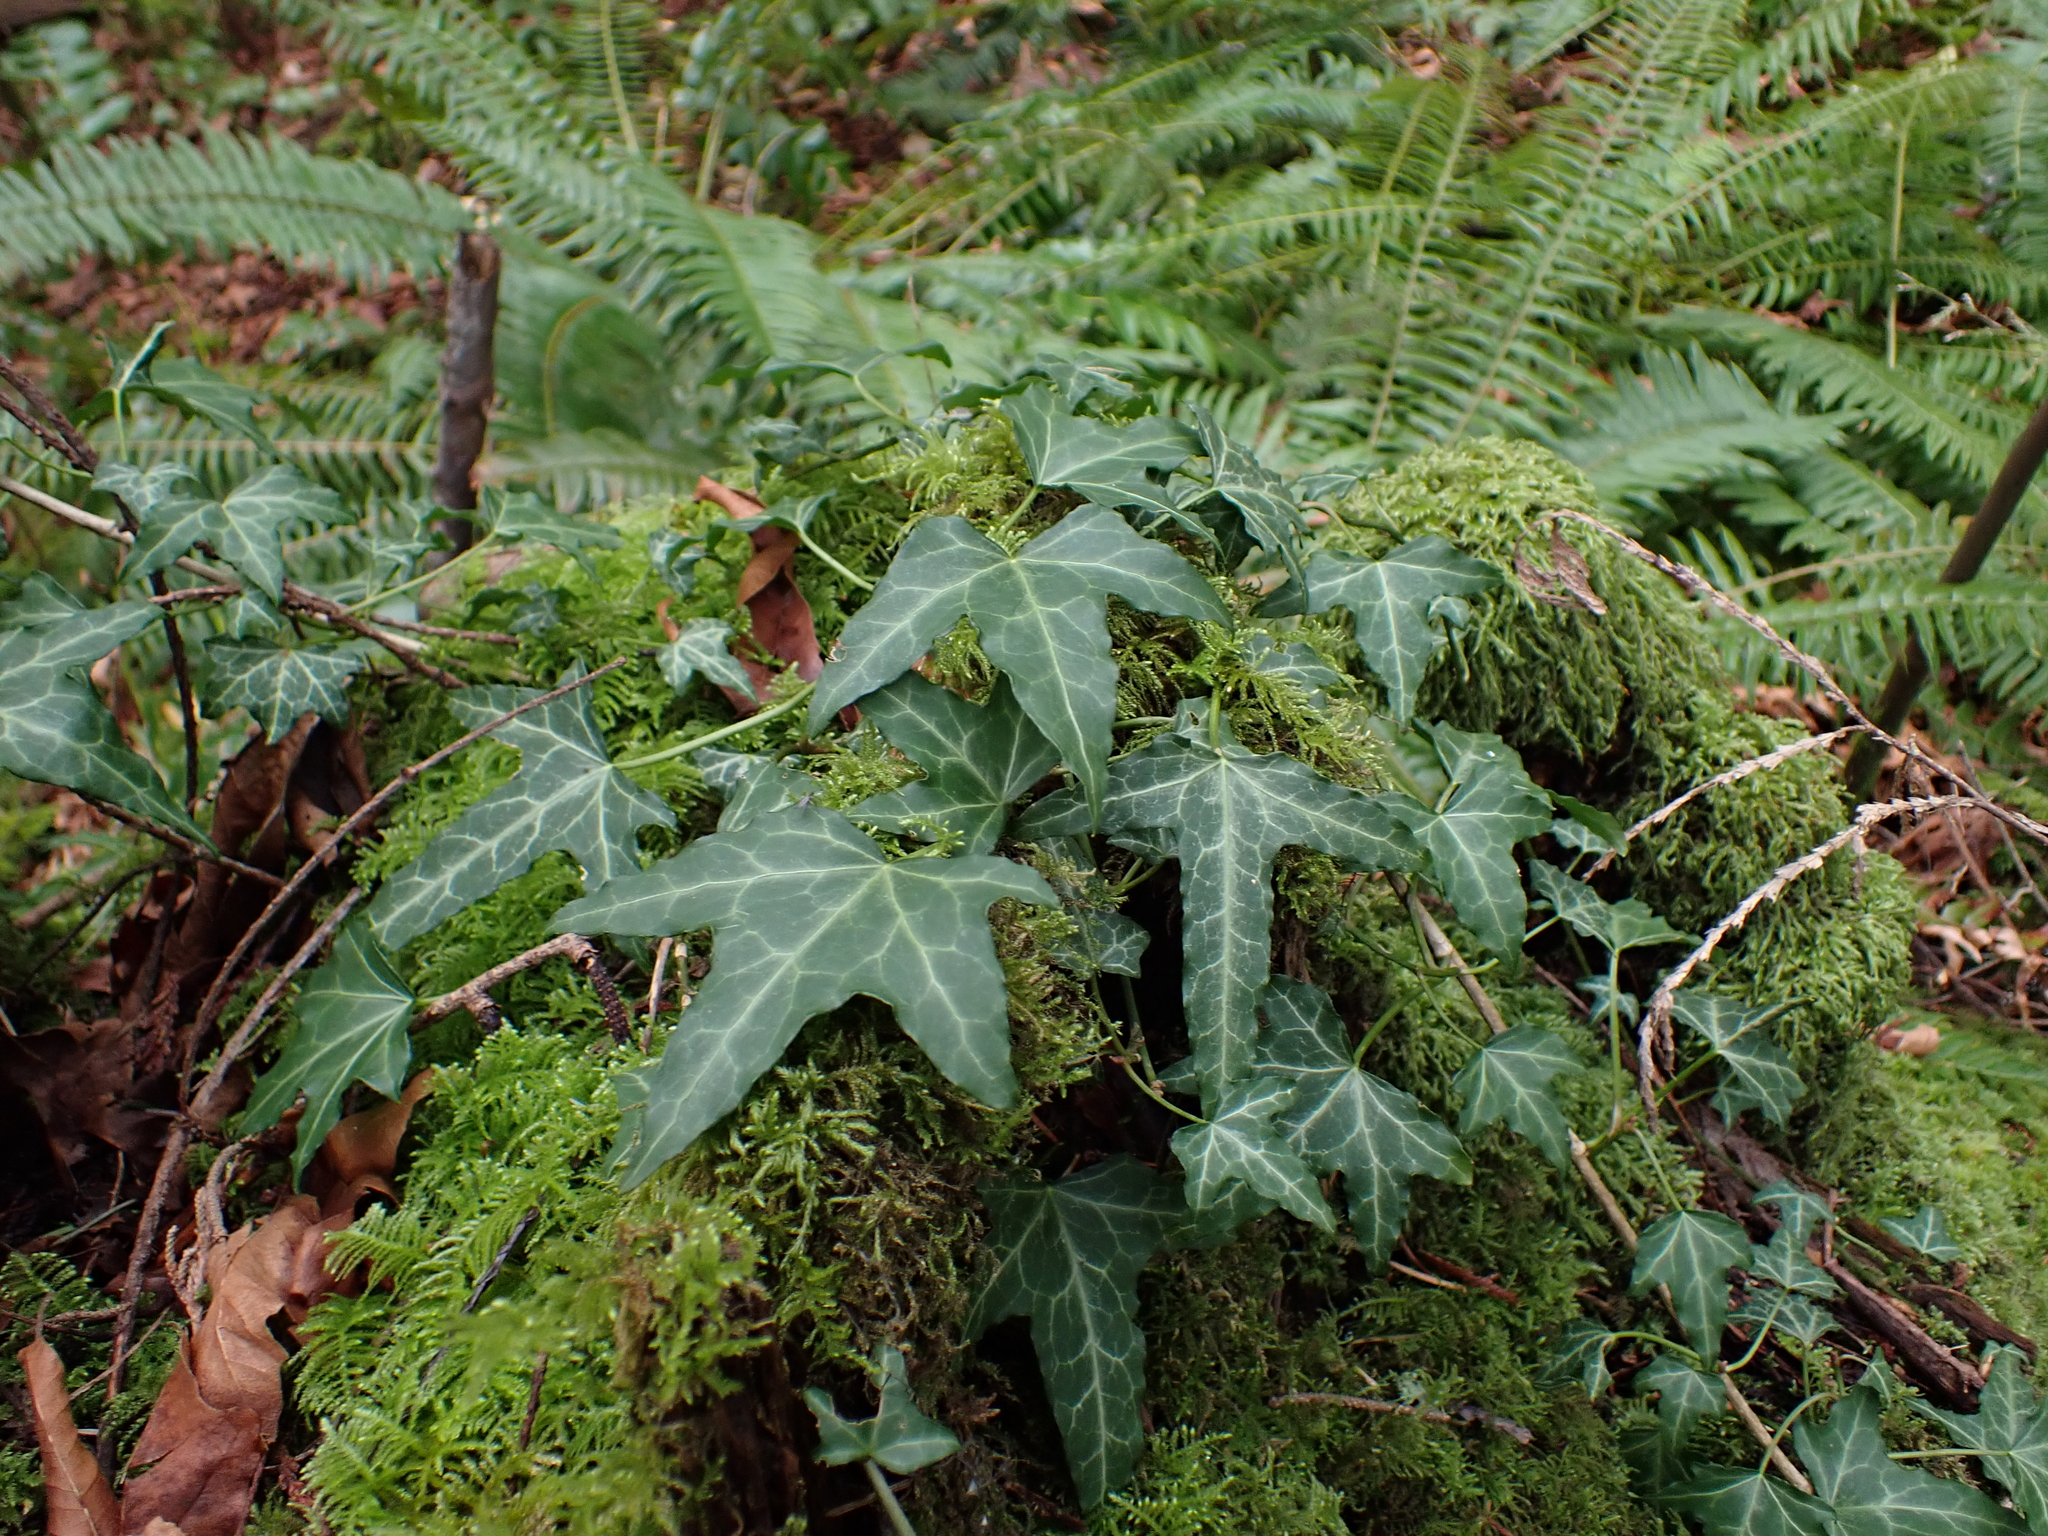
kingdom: Plantae
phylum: Tracheophyta
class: Magnoliopsida
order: Apiales
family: Araliaceae
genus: Hedera
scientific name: Hedera helix
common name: Ivy
